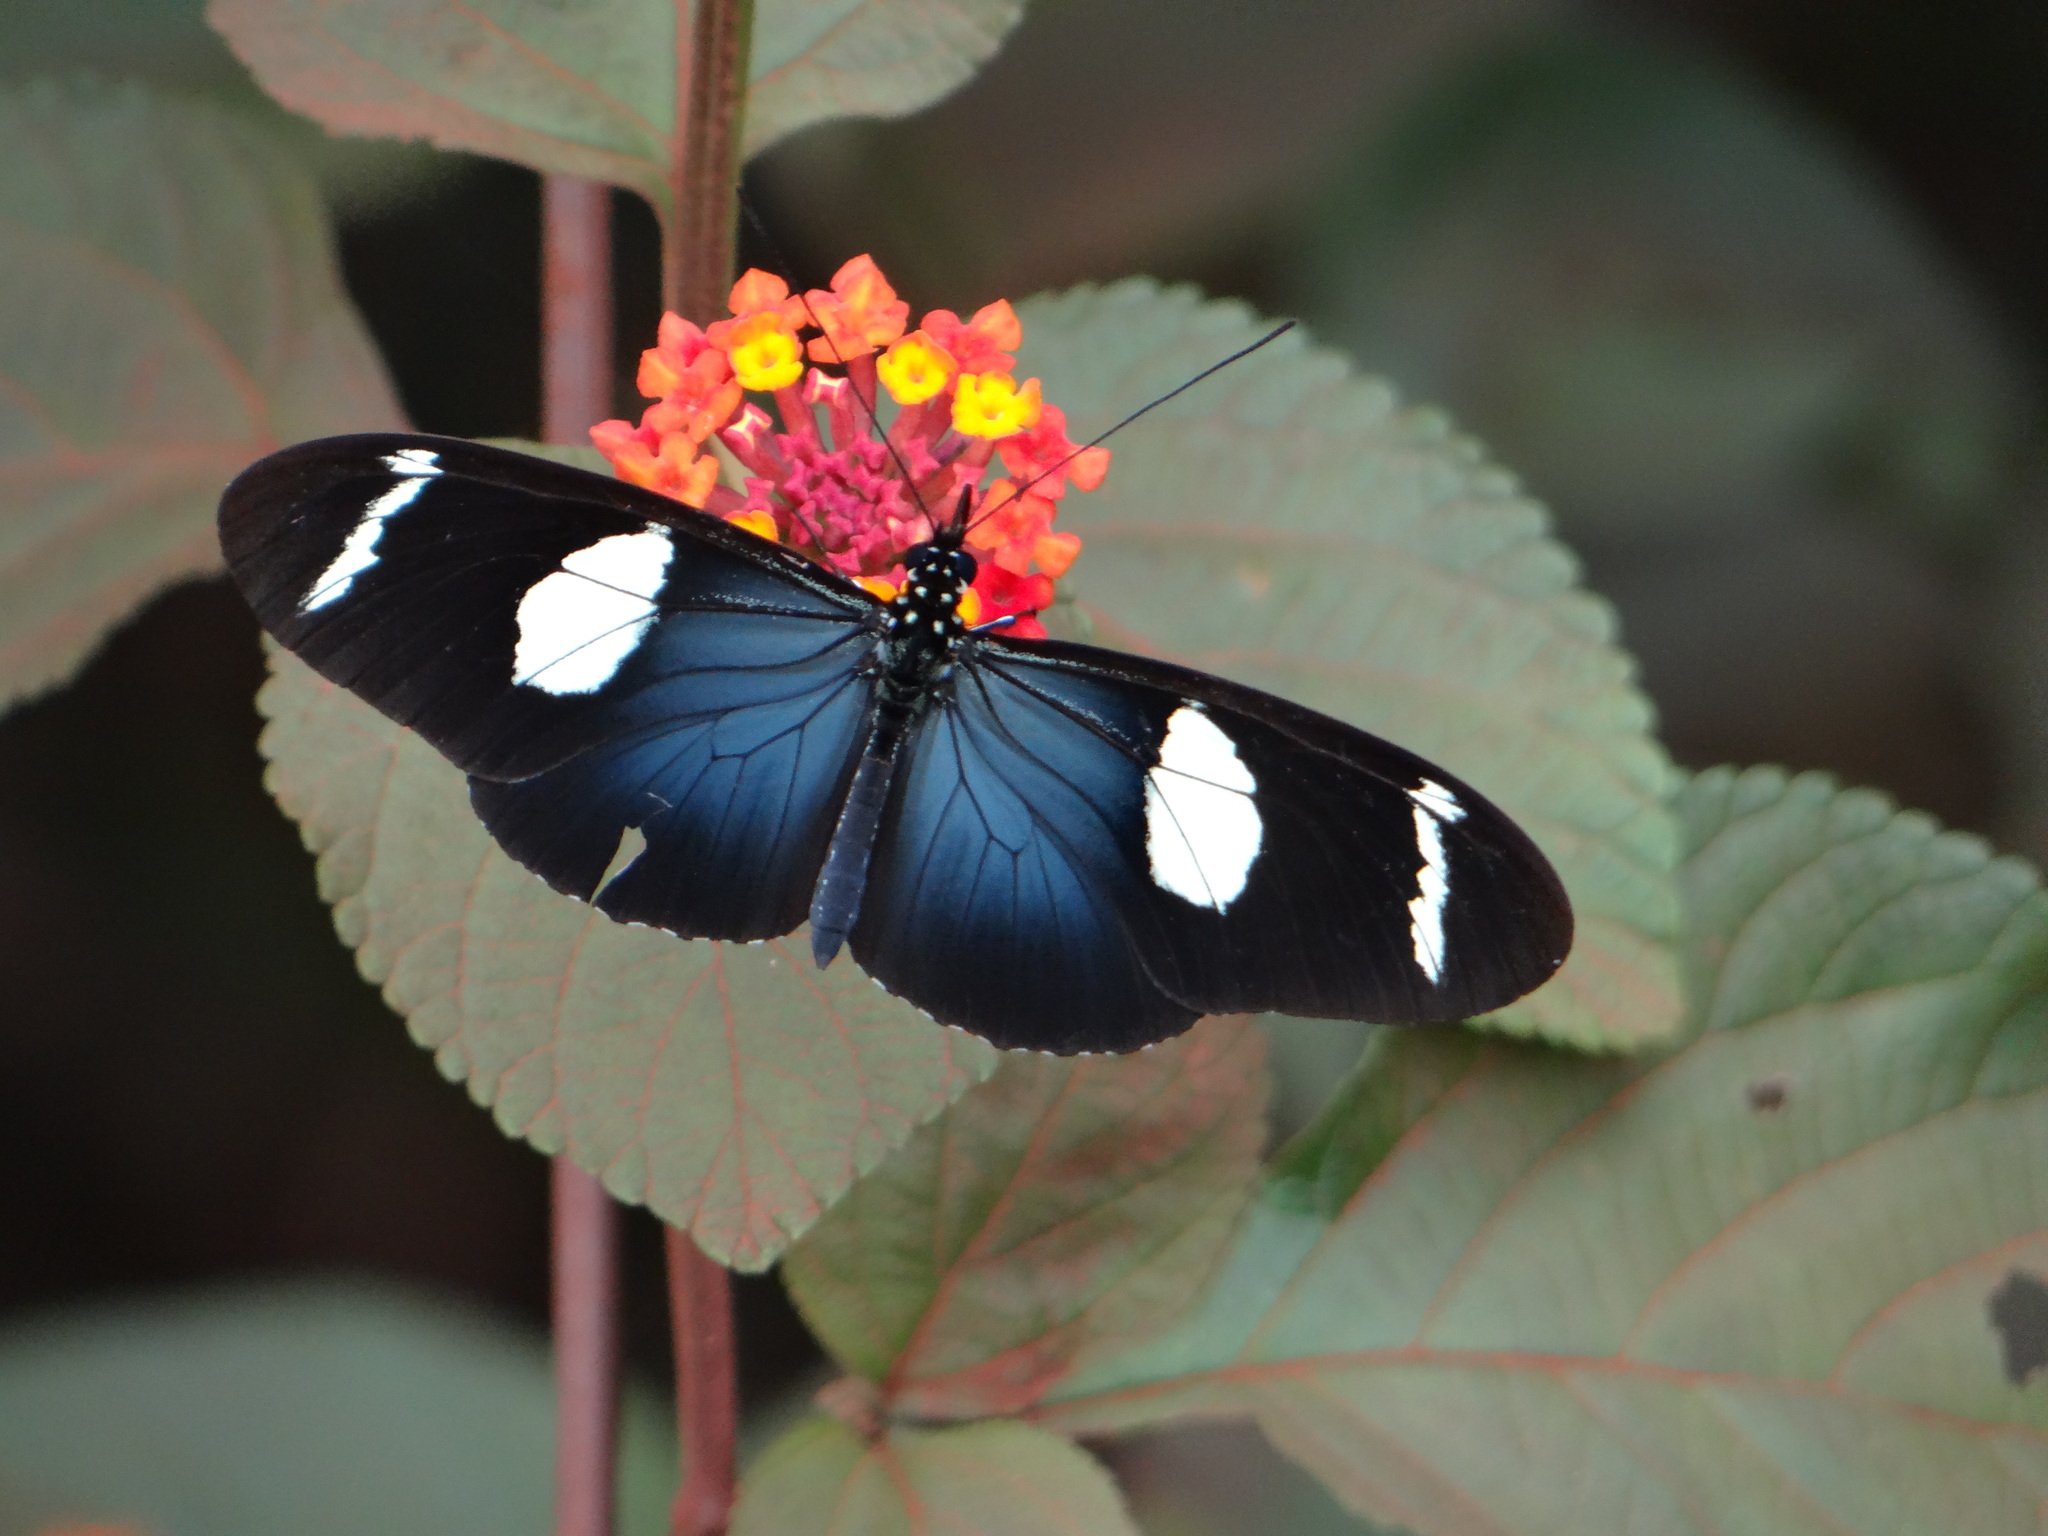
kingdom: Animalia
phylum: Arthropoda
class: Insecta
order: Lepidoptera
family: Nymphalidae
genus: Heliconius
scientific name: Heliconius wallacei
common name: Wallace's longwing
